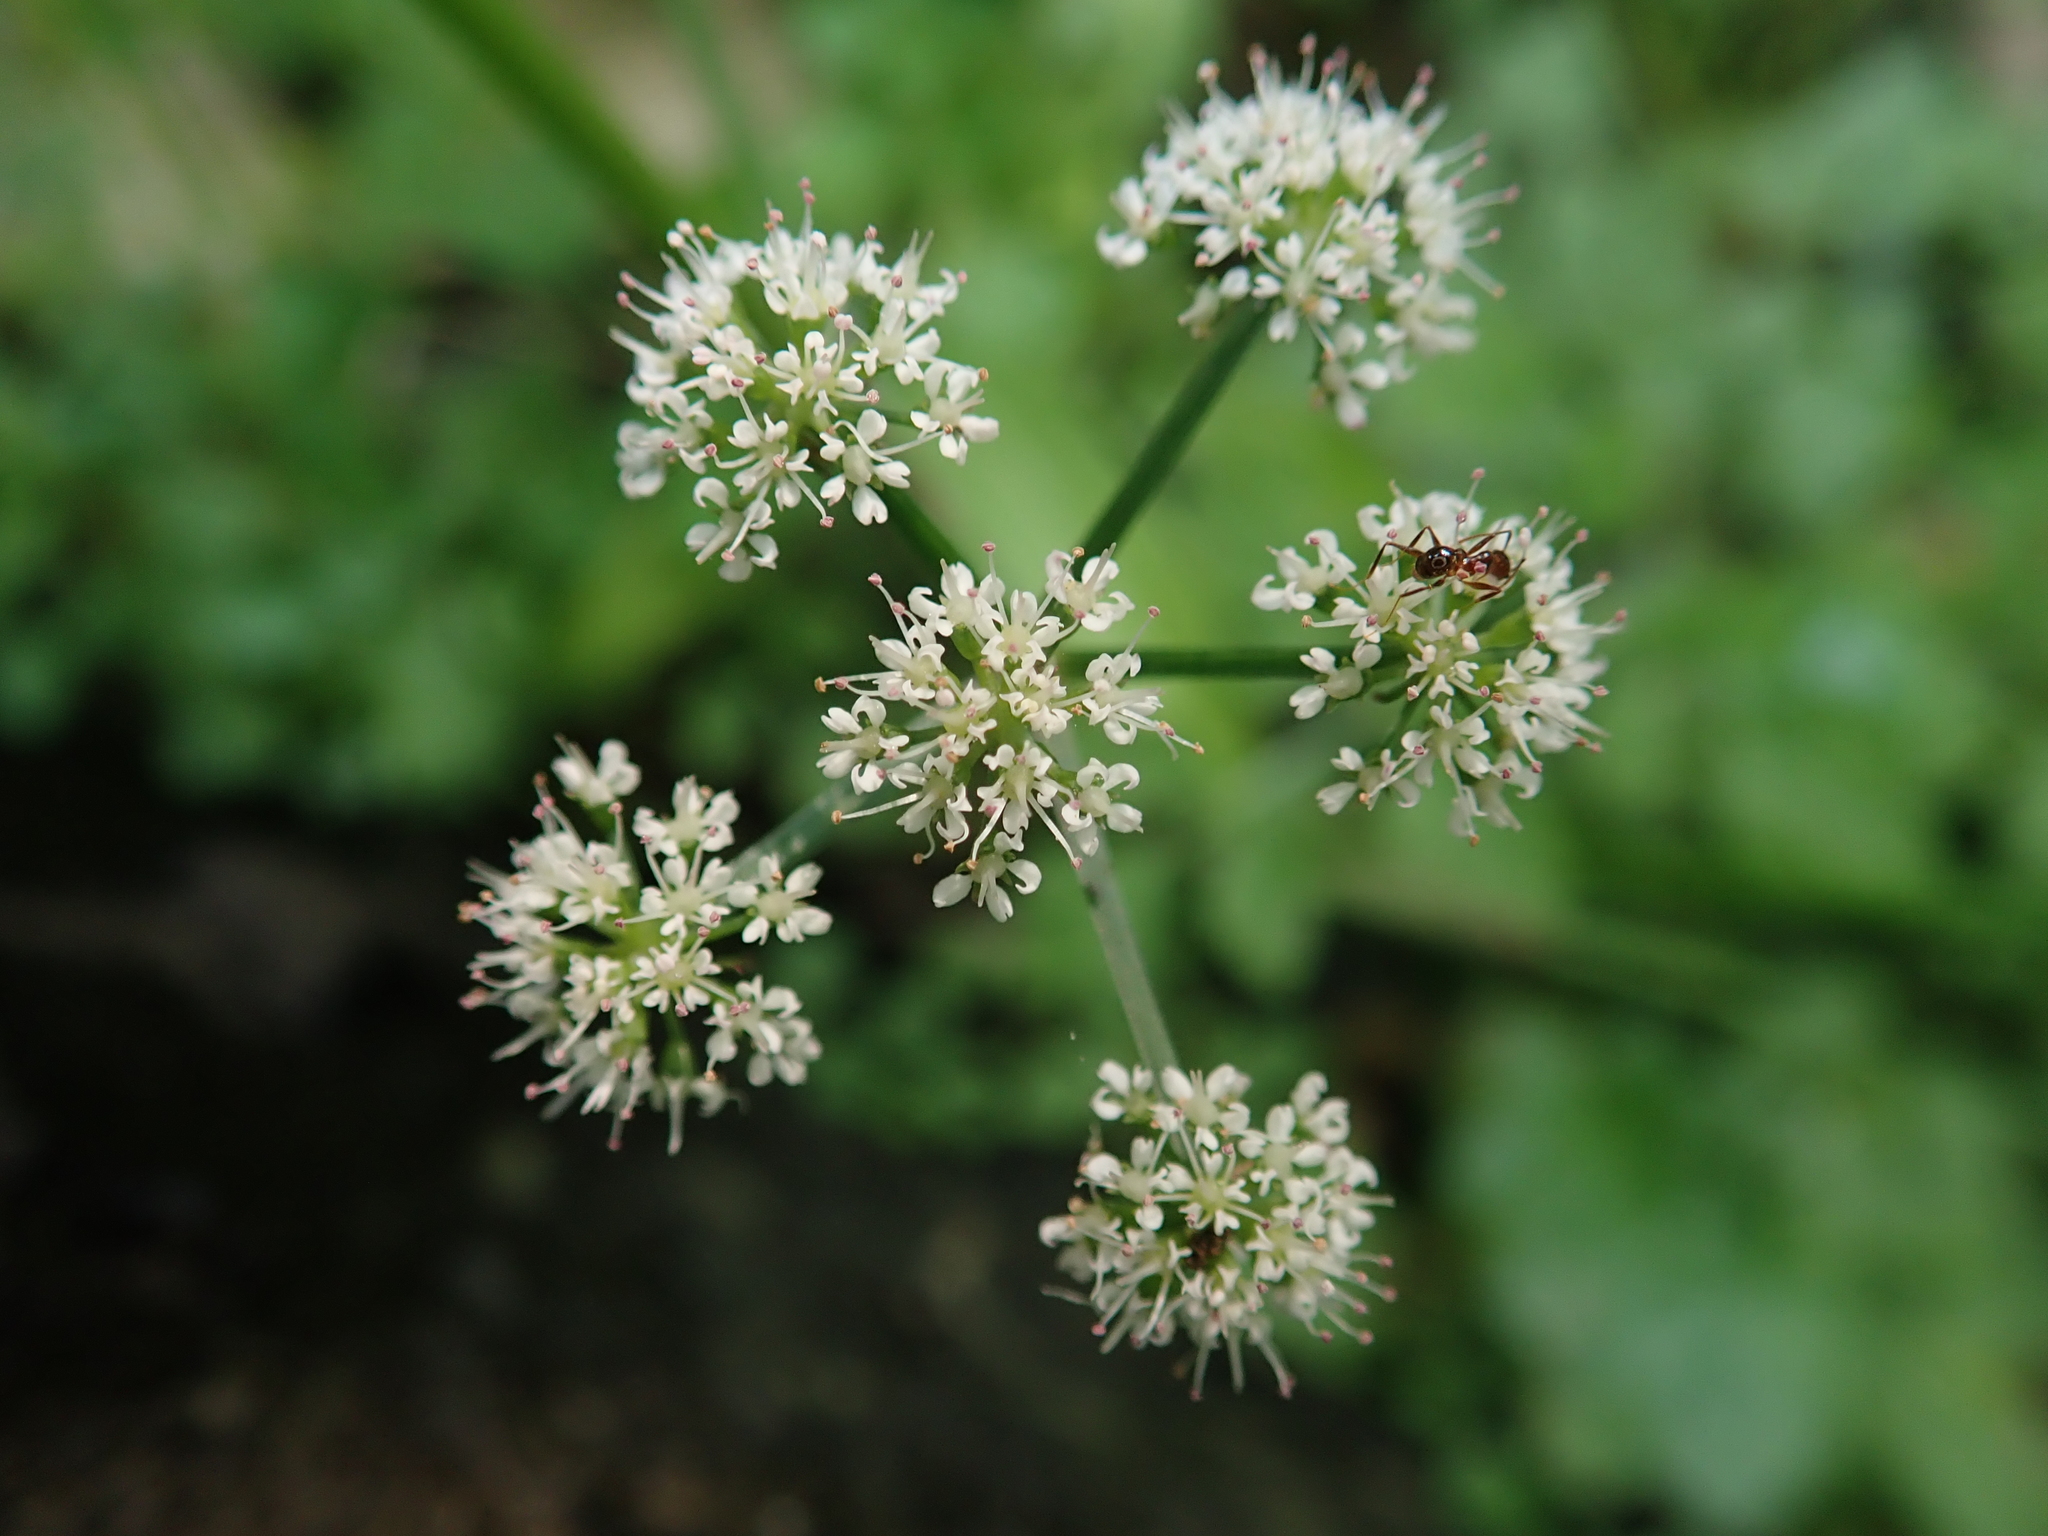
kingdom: Plantae
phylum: Tracheophyta
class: Magnoliopsida
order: Apiales
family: Apiaceae
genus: Oenanthe
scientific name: Oenanthe javanica
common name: Java water-dropwort
